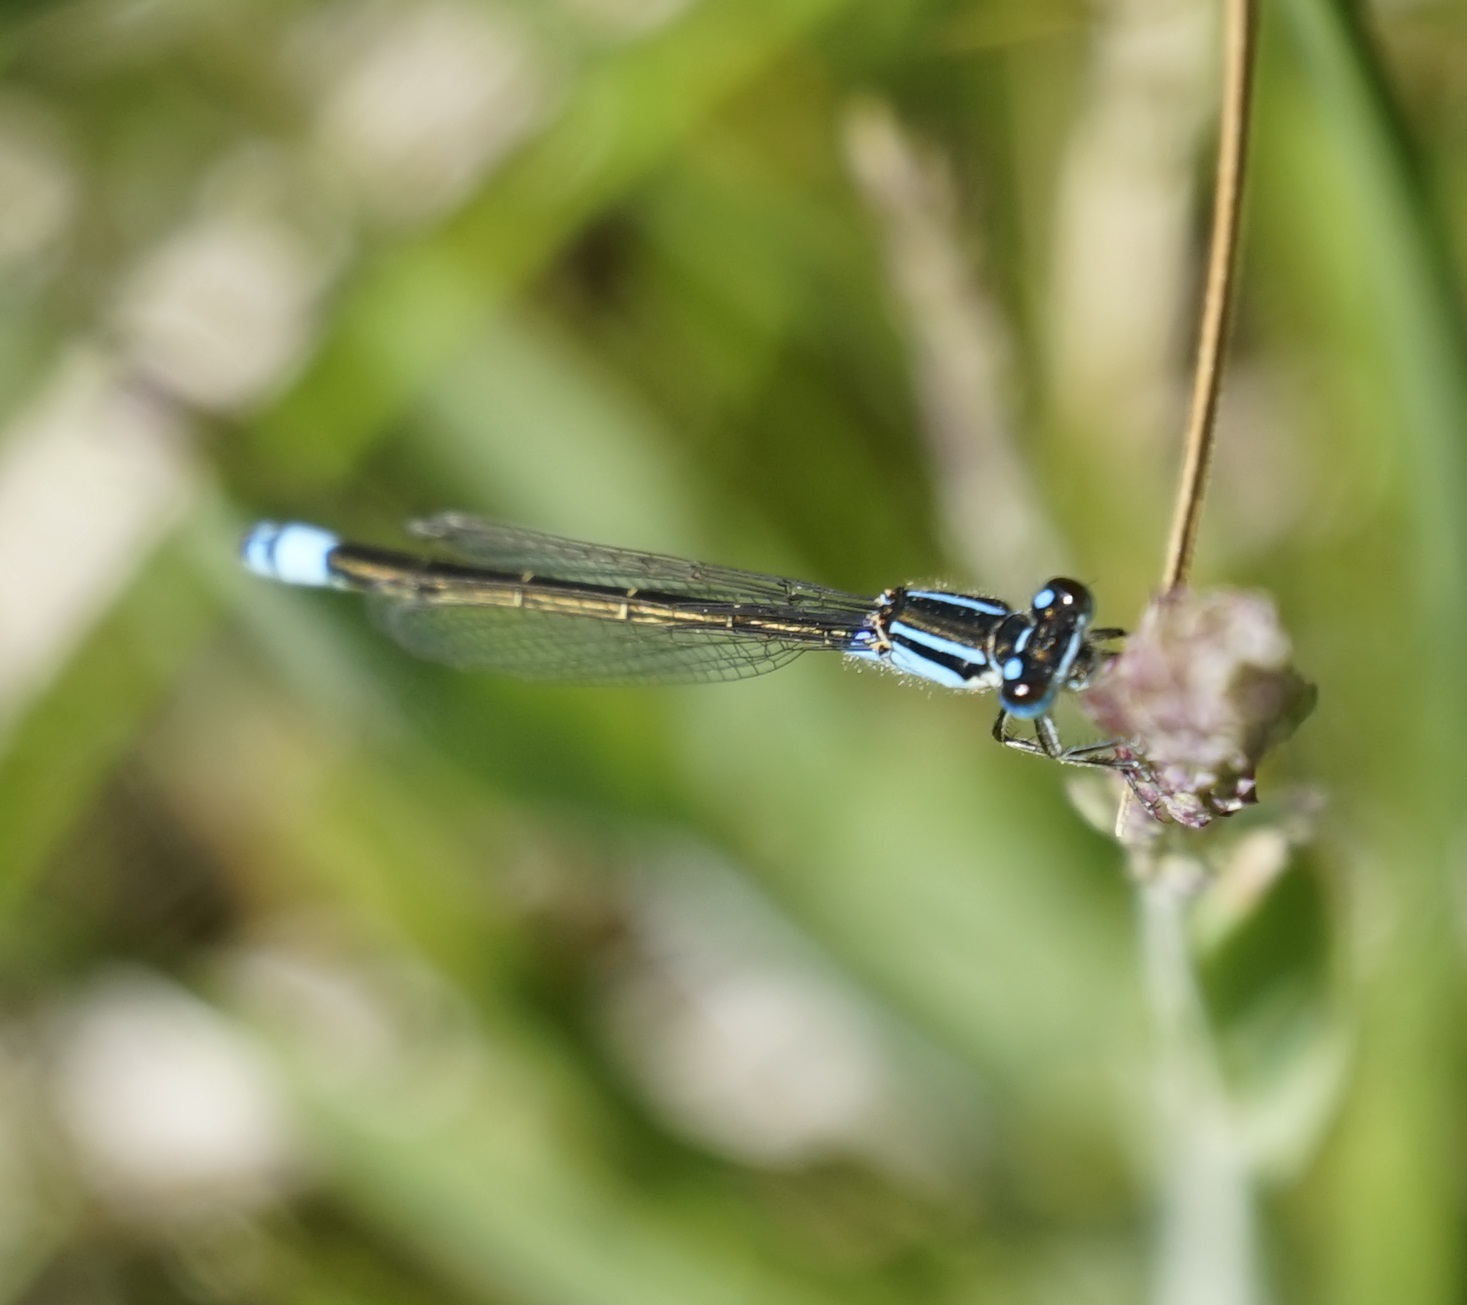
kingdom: Animalia
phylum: Arthropoda
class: Insecta
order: Odonata
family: Coenagrionidae
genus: Ischnura
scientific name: Ischnura heterosticta
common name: Common bluetail
